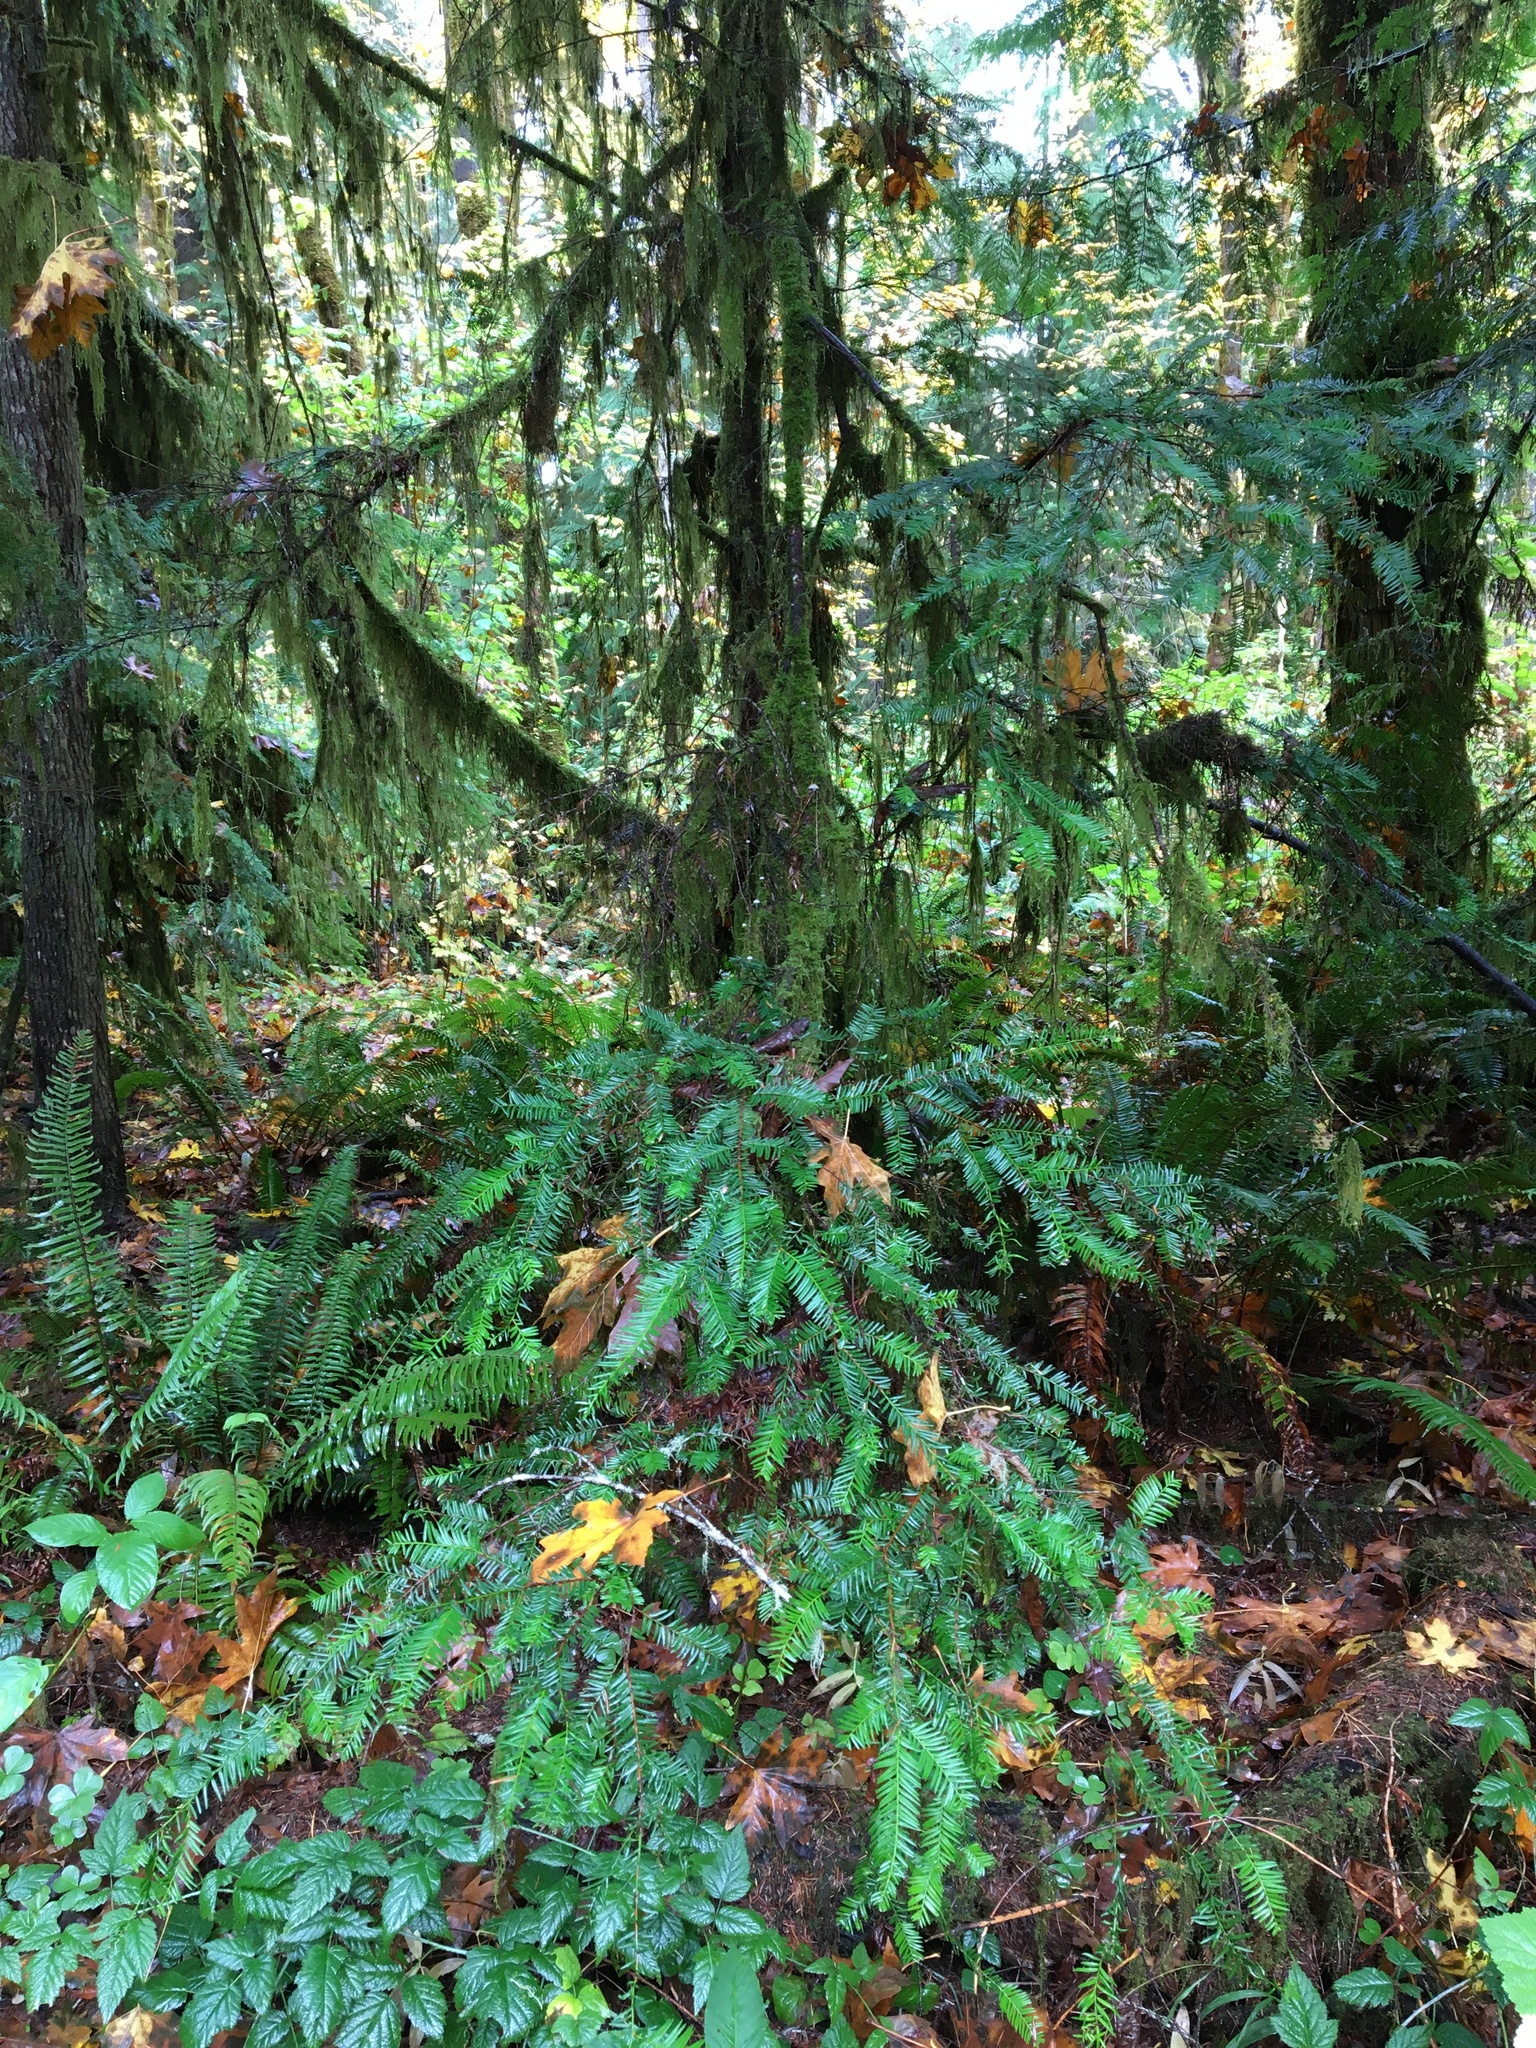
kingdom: Plantae
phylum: Tracheophyta
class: Pinopsida
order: Pinales
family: Taxaceae
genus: Taxus
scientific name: Taxus brevifolia
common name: Pacific yew
